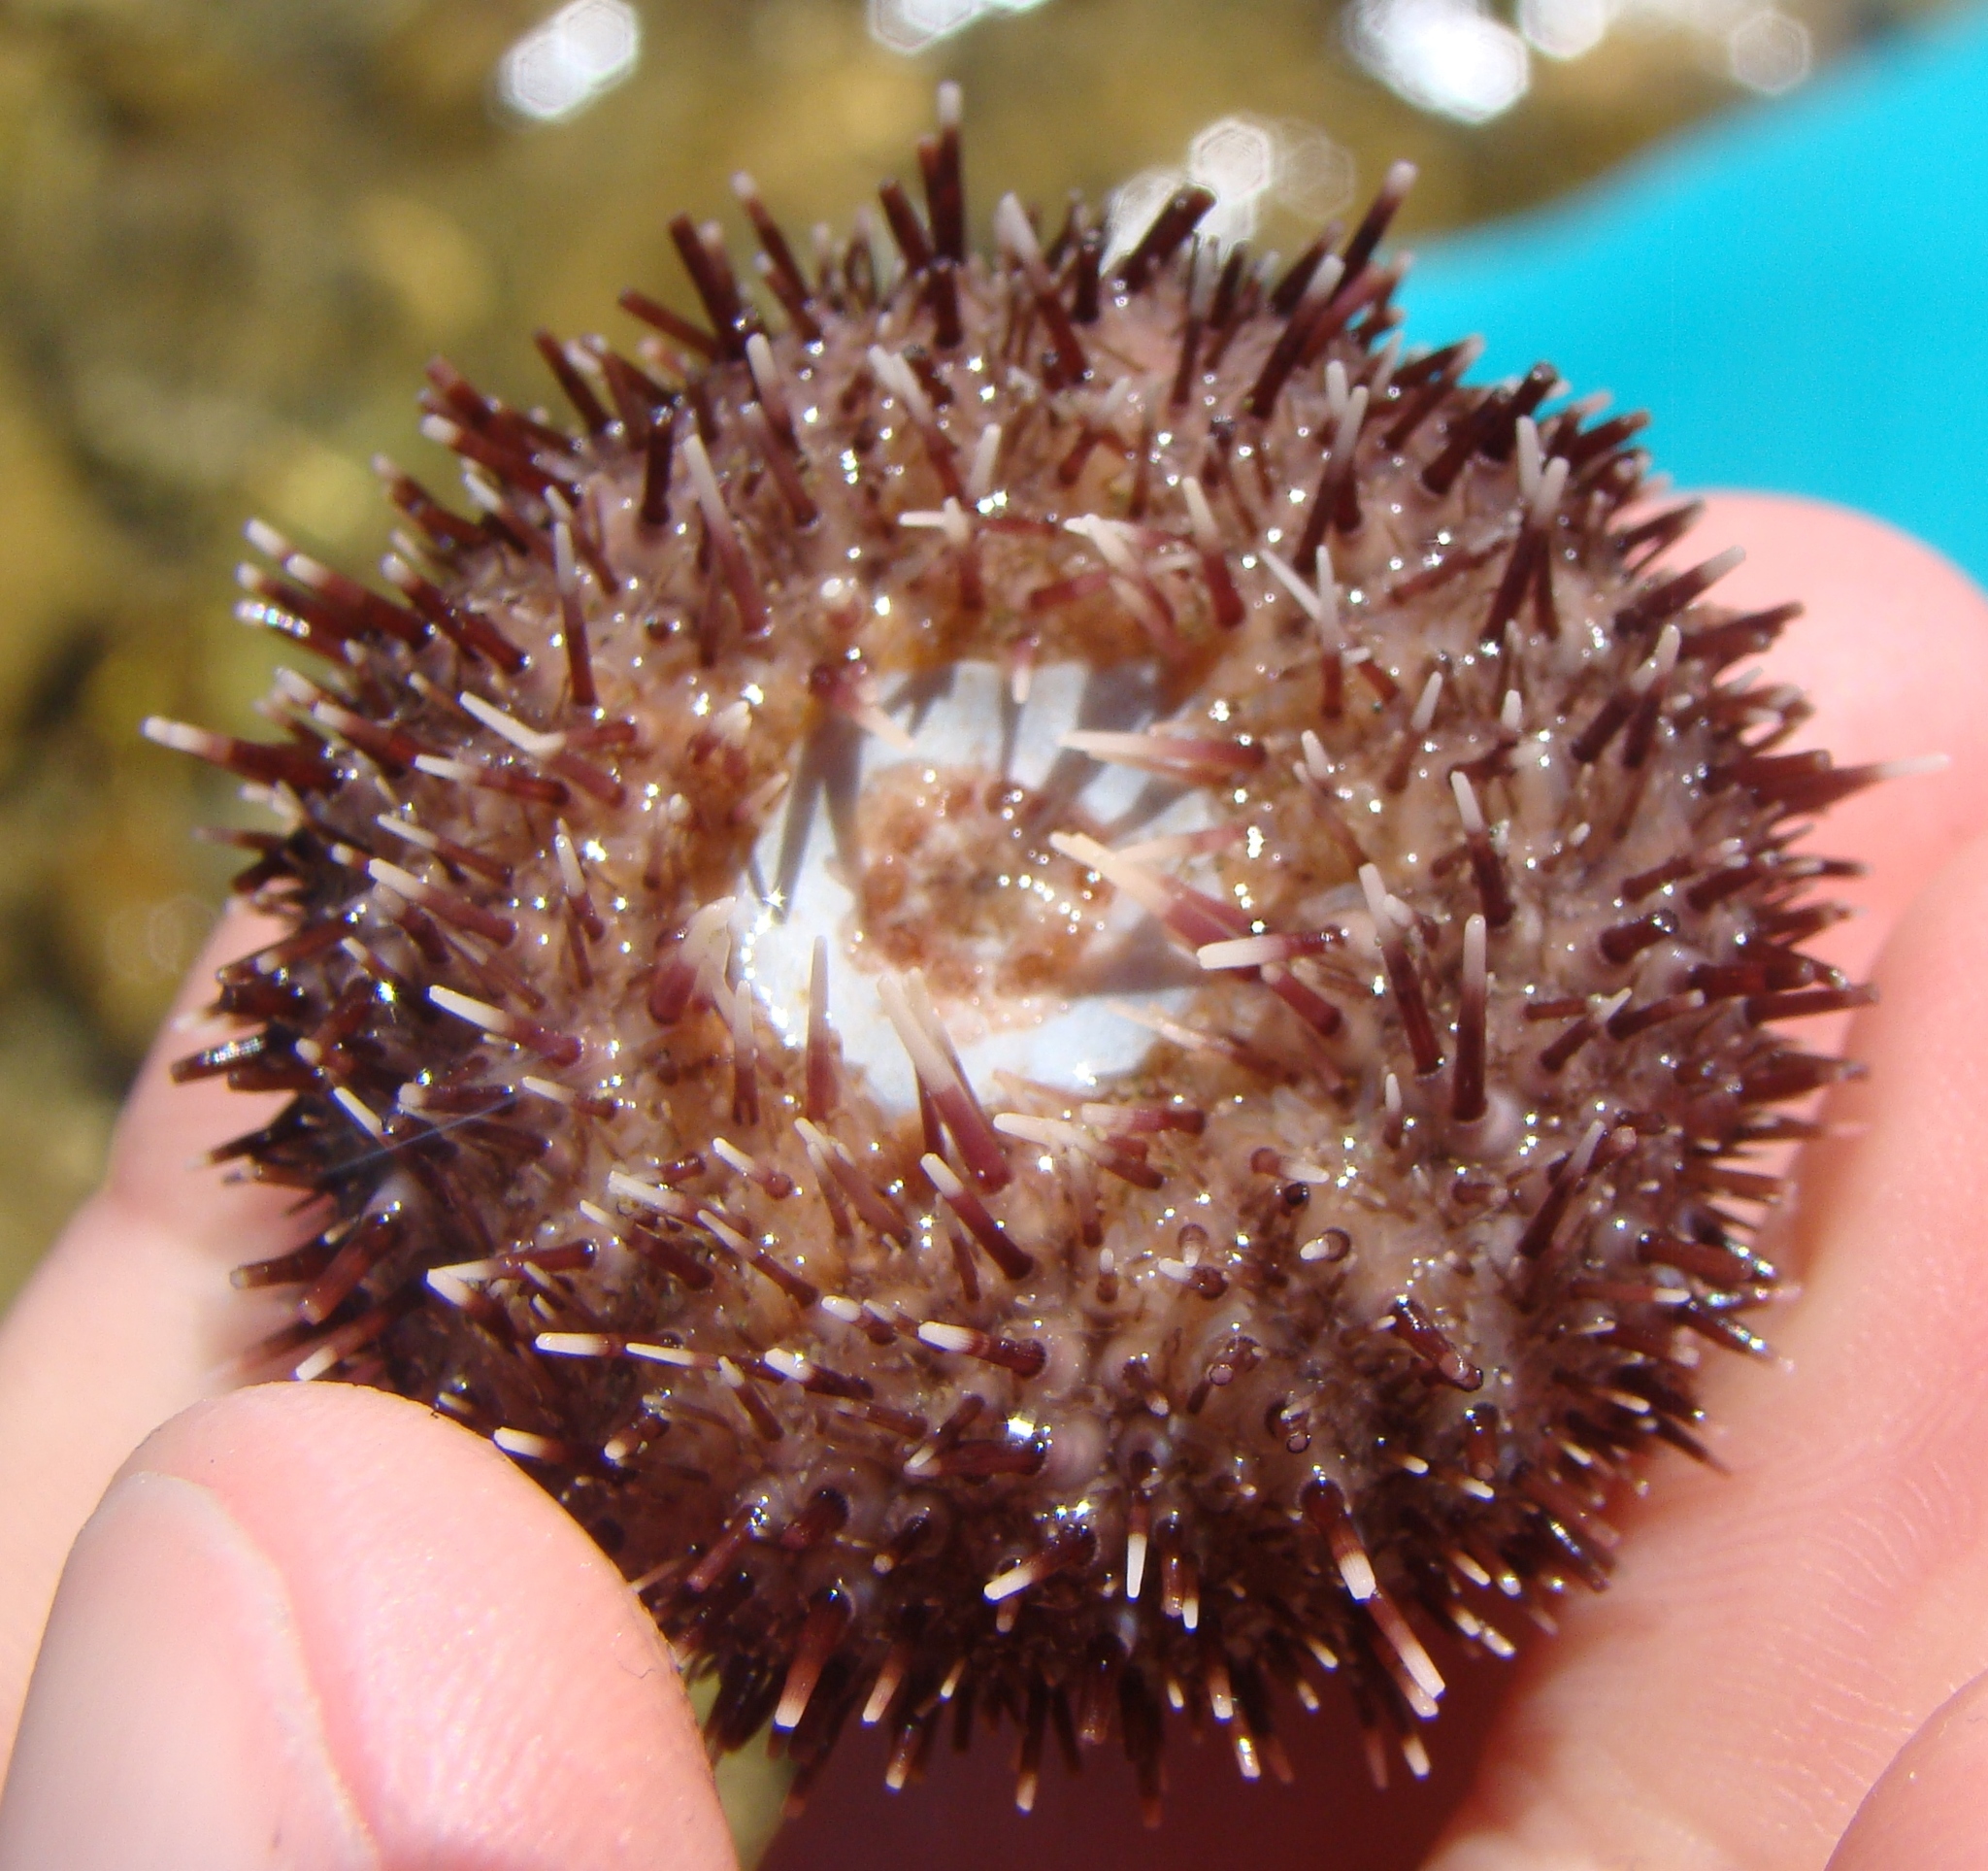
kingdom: Animalia
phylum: Echinodermata
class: Echinoidea
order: Camarodonta
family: Temnopleuridae
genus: Pseudechinus
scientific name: Pseudechinus albocinctus
